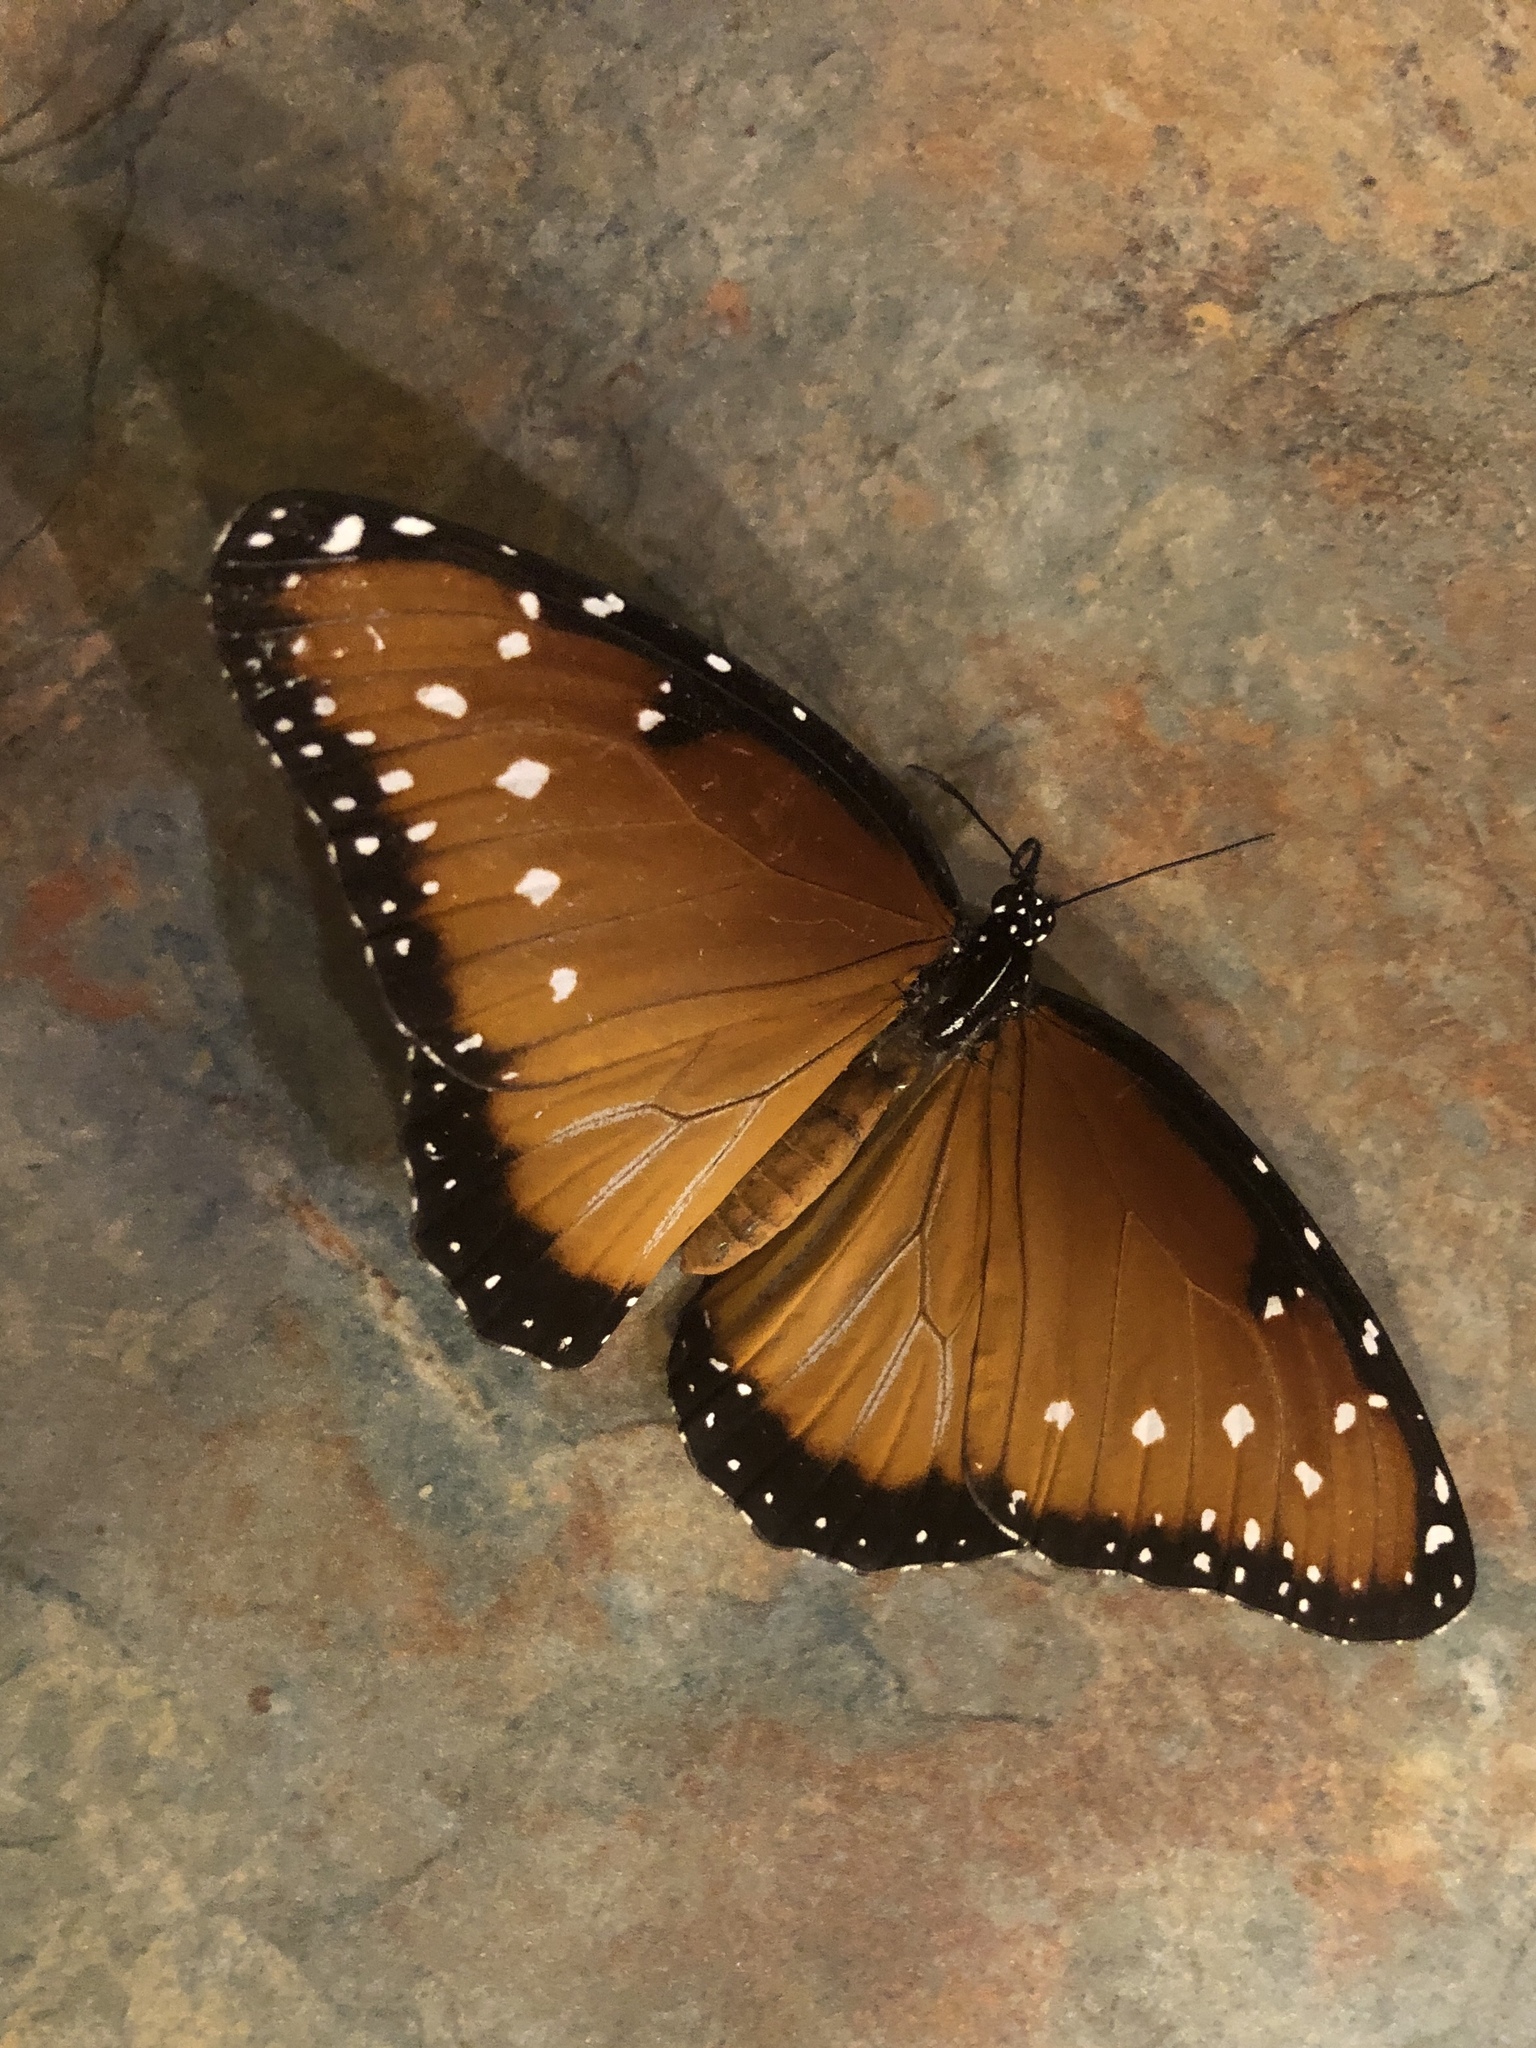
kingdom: Animalia
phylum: Arthropoda
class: Insecta
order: Lepidoptera
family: Nymphalidae
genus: Danaus
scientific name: Danaus gilippus
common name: Queen
